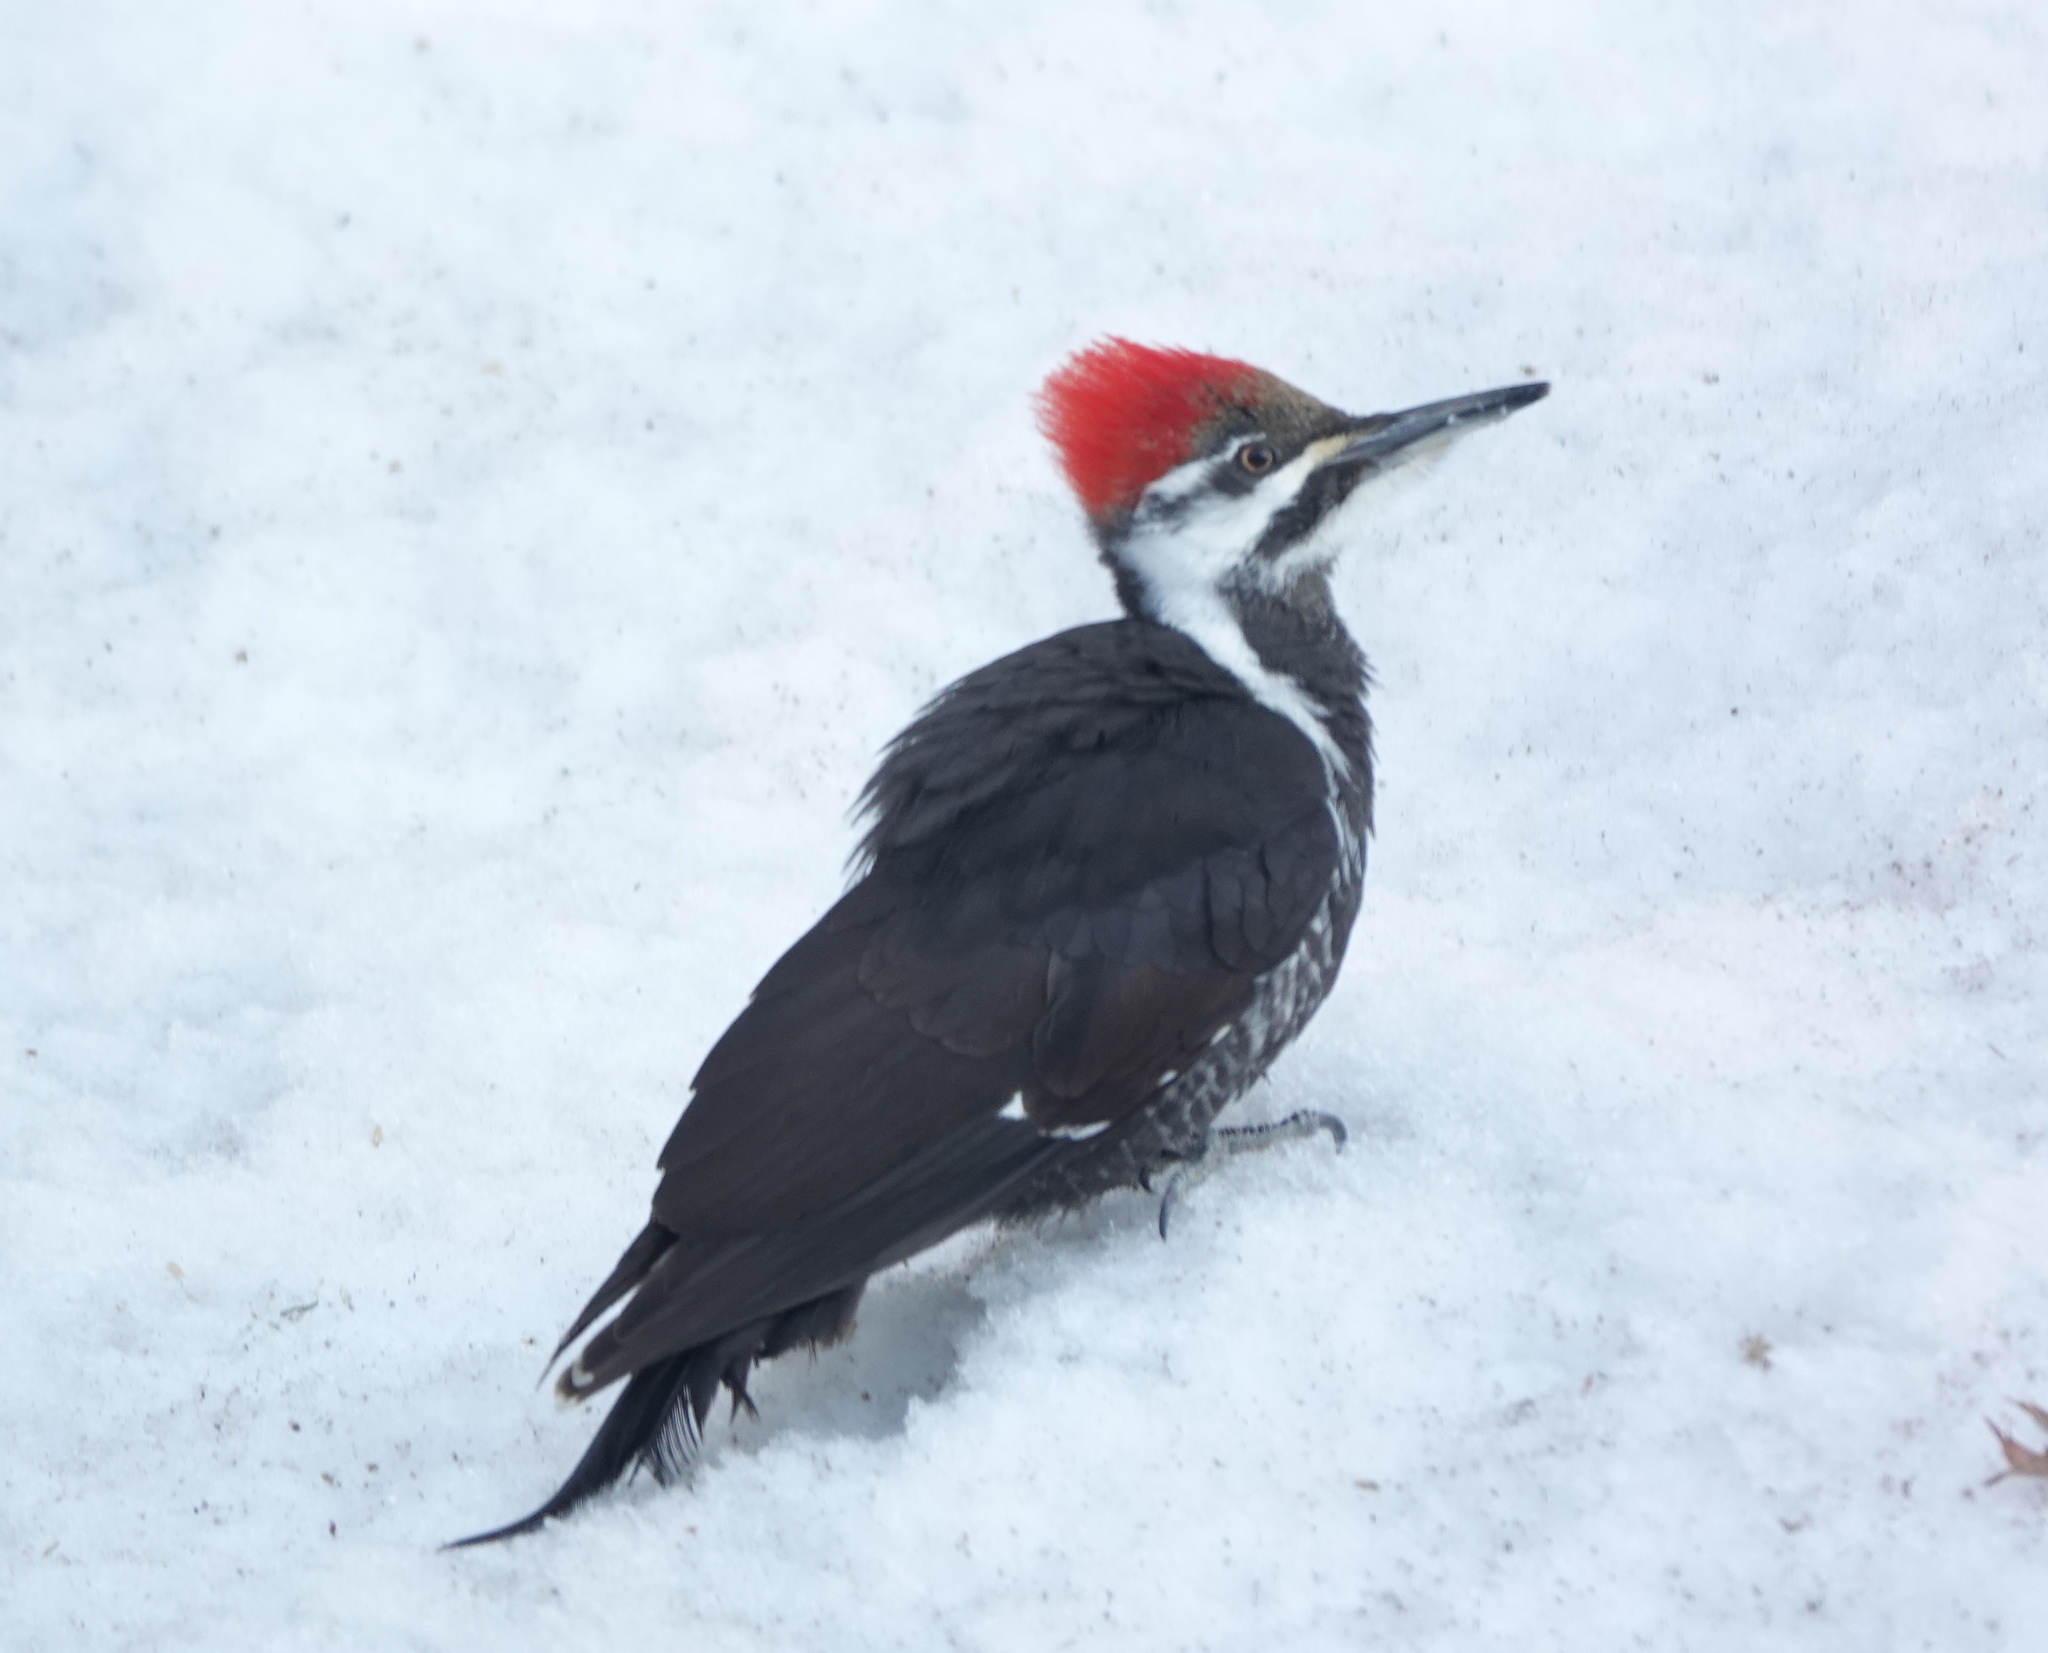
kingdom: Animalia
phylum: Chordata
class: Aves
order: Piciformes
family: Picidae
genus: Dryocopus
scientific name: Dryocopus pileatus
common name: Pileated woodpecker
